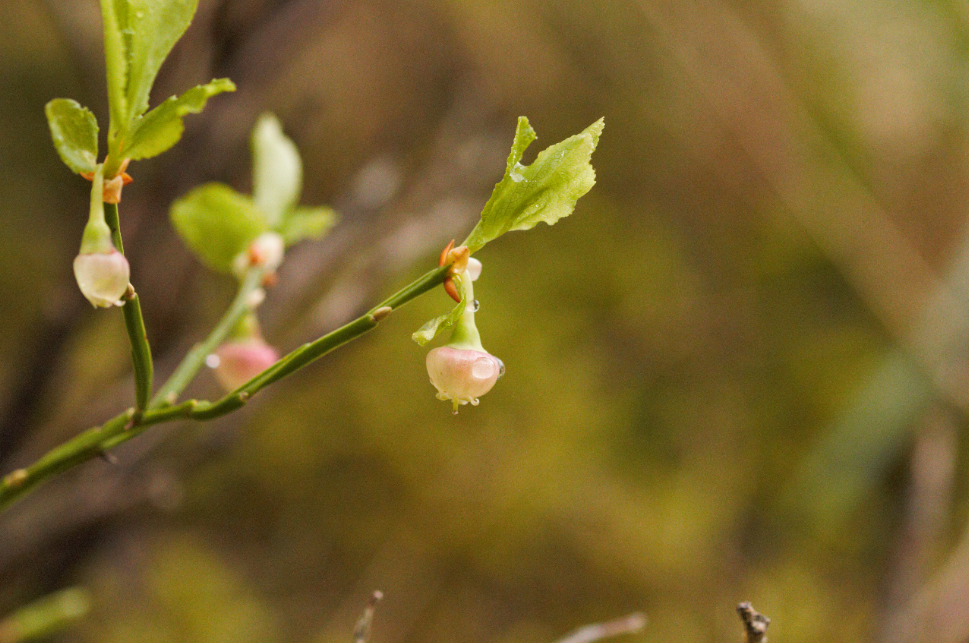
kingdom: Plantae
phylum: Tracheophyta
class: Magnoliopsida
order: Ericales
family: Ericaceae
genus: Vaccinium
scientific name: Vaccinium myrtillus
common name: Bilberry
